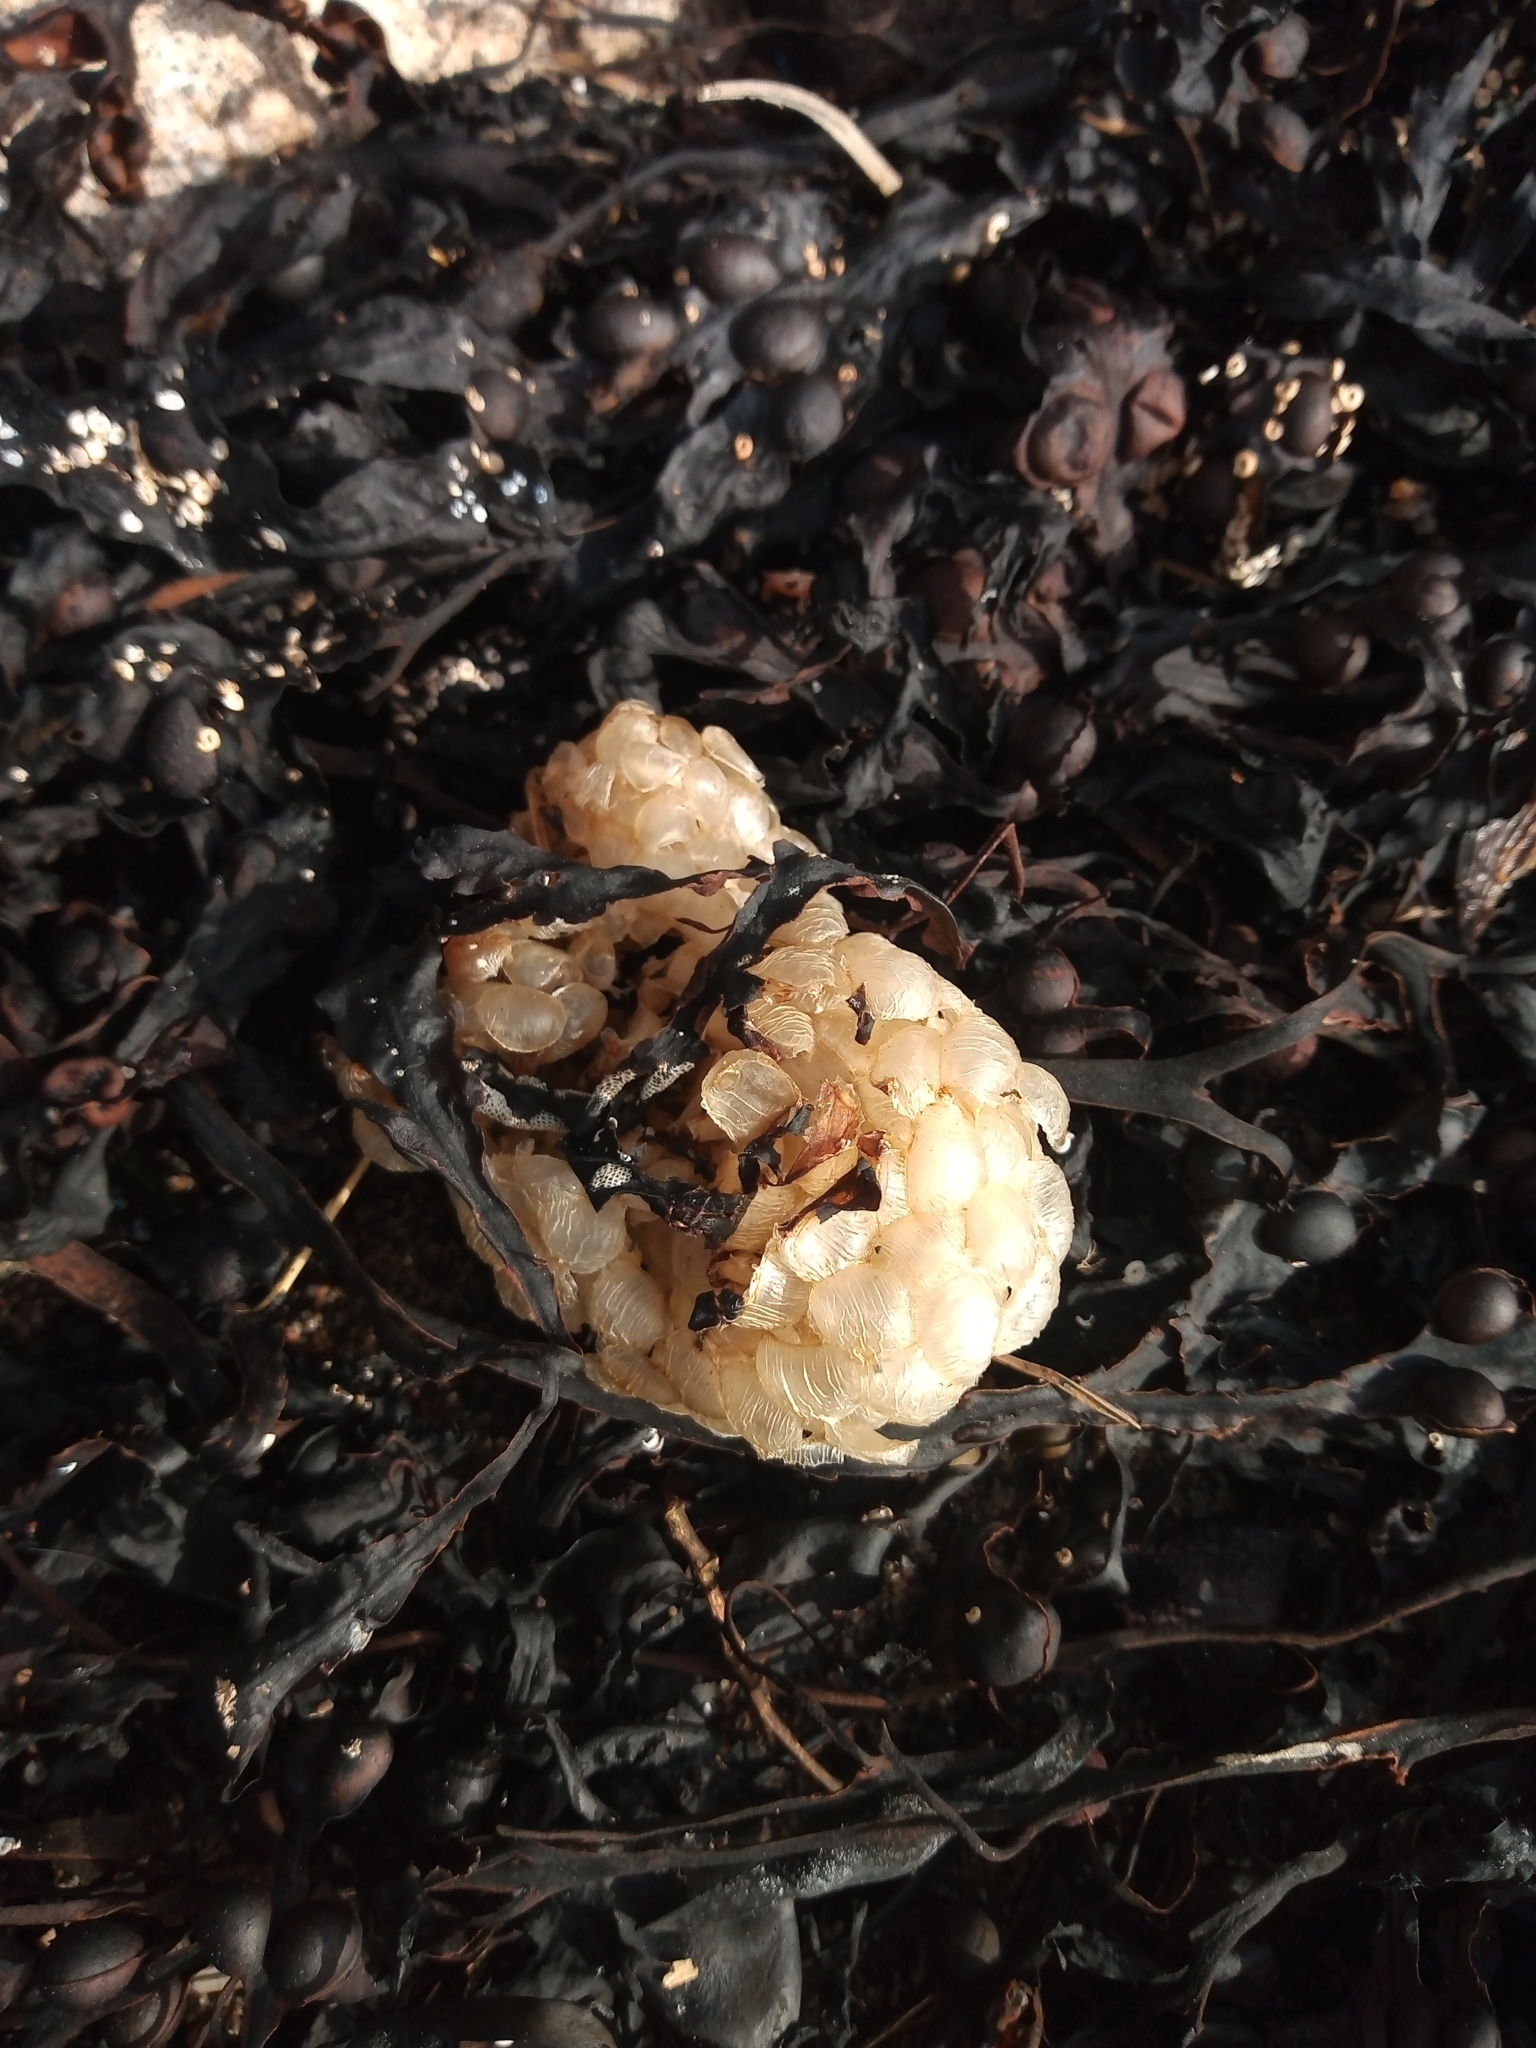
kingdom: Animalia
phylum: Mollusca
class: Gastropoda
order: Neogastropoda
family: Buccinidae
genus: Buccinum
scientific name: Buccinum undatum
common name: Common whelk
